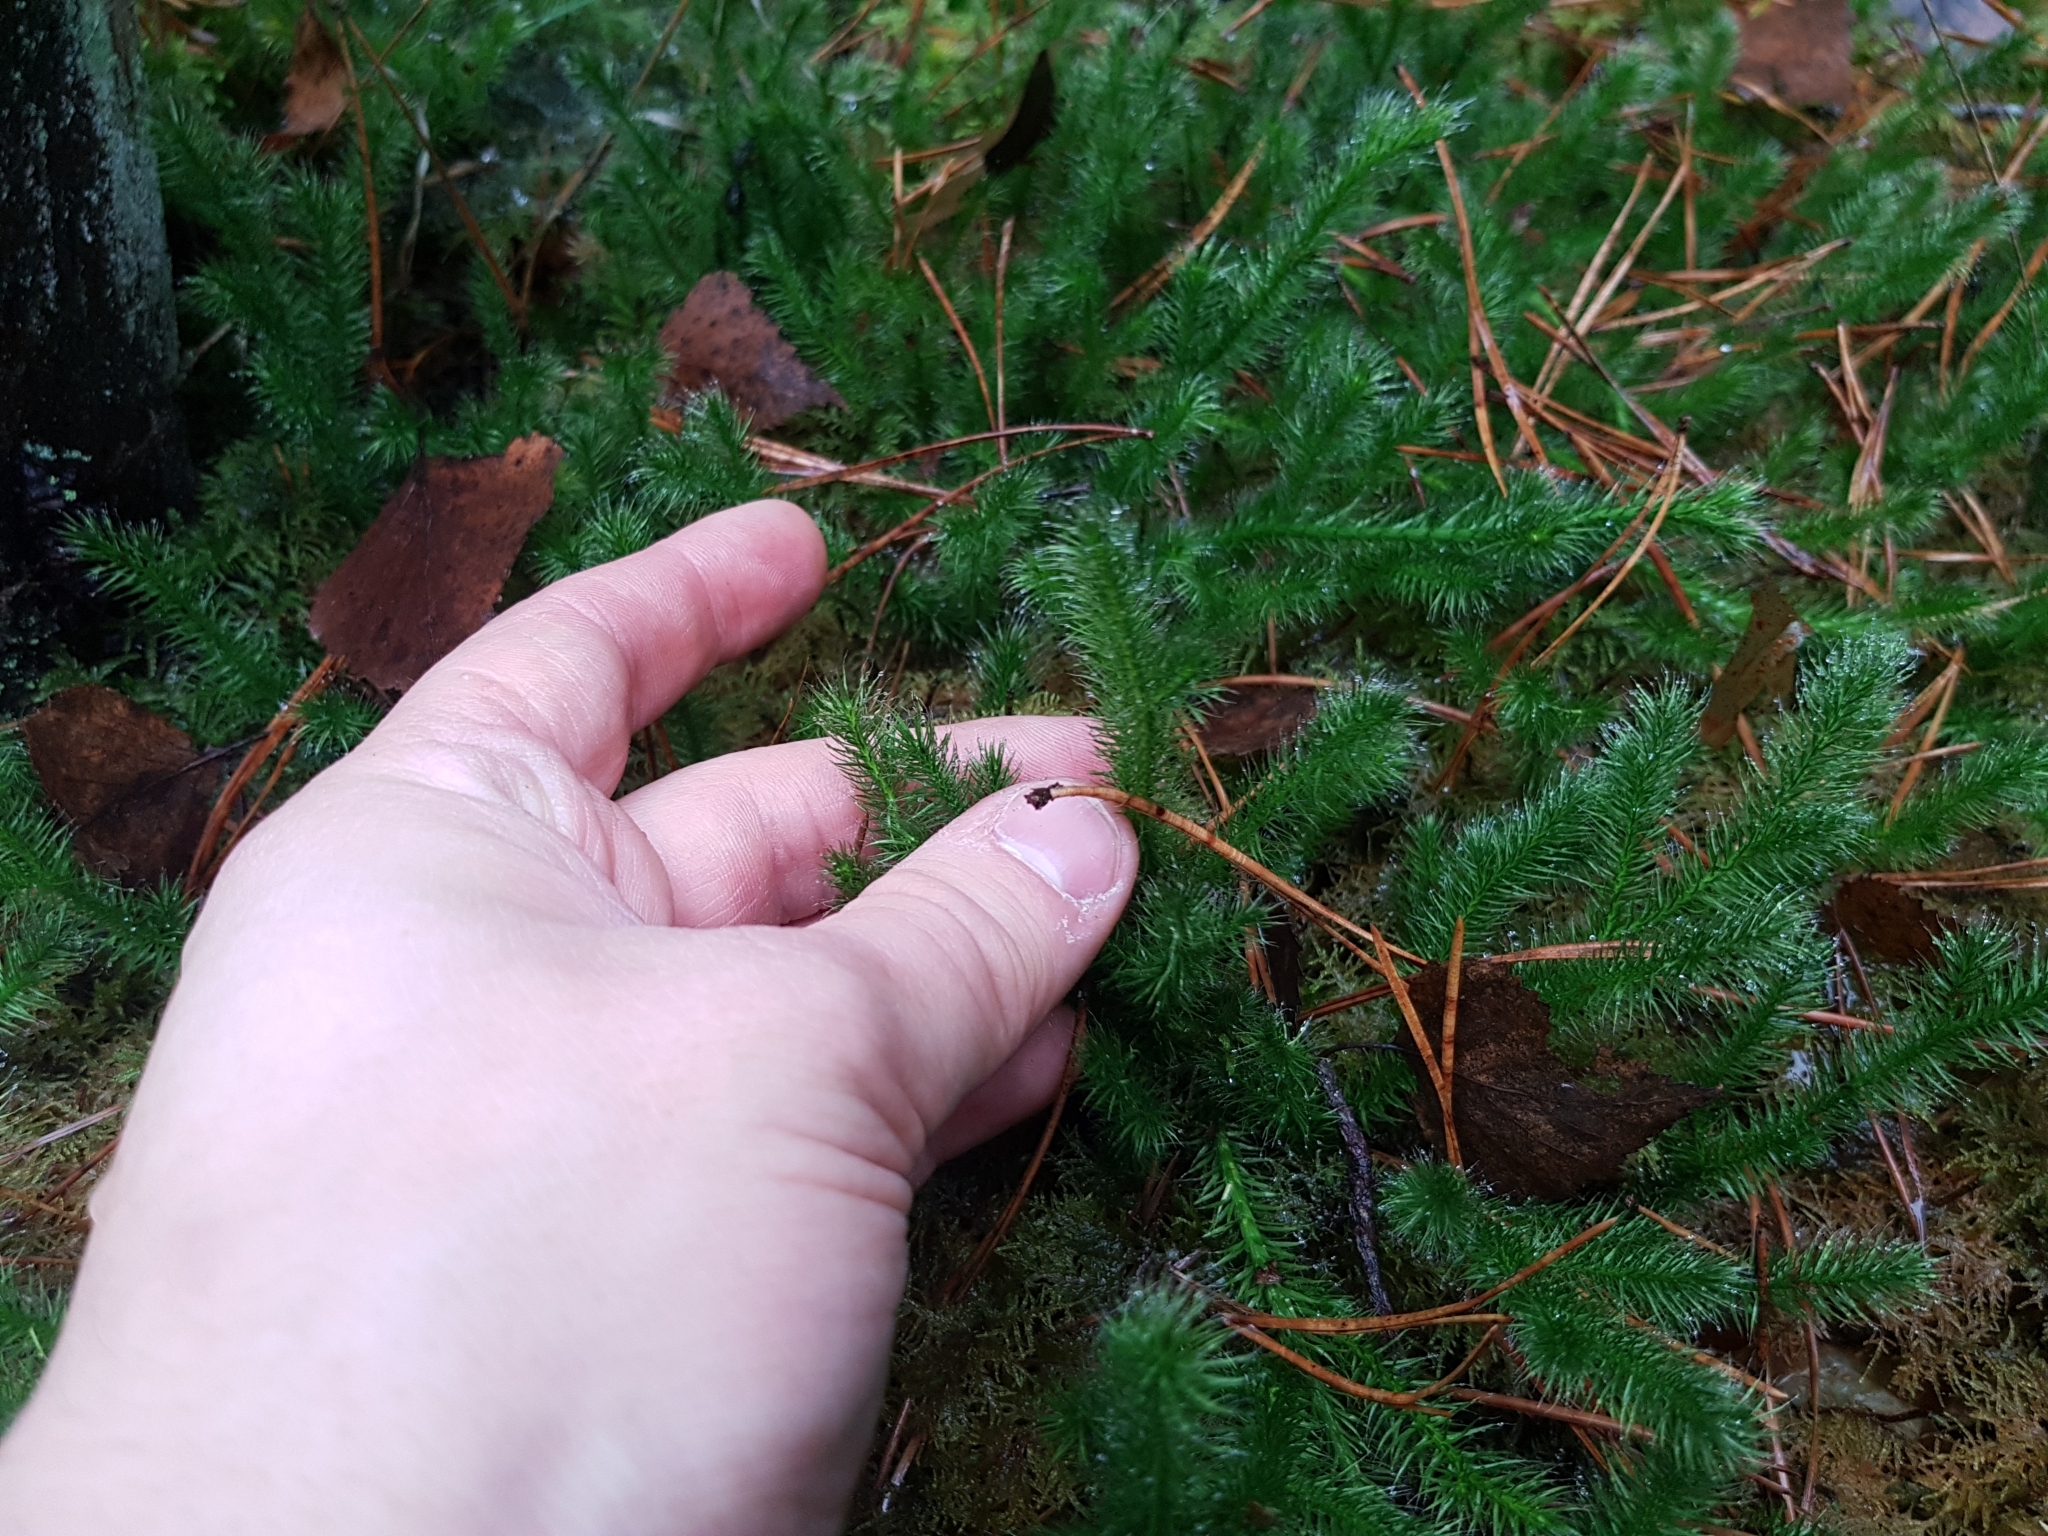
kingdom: Plantae
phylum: Tracheophyta
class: Lycopodiopsida
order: Lycopodiales
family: Lycopodiaceae
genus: Lycopodium
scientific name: Lycopodium clavatum
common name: Stag's-horn clubmoss
